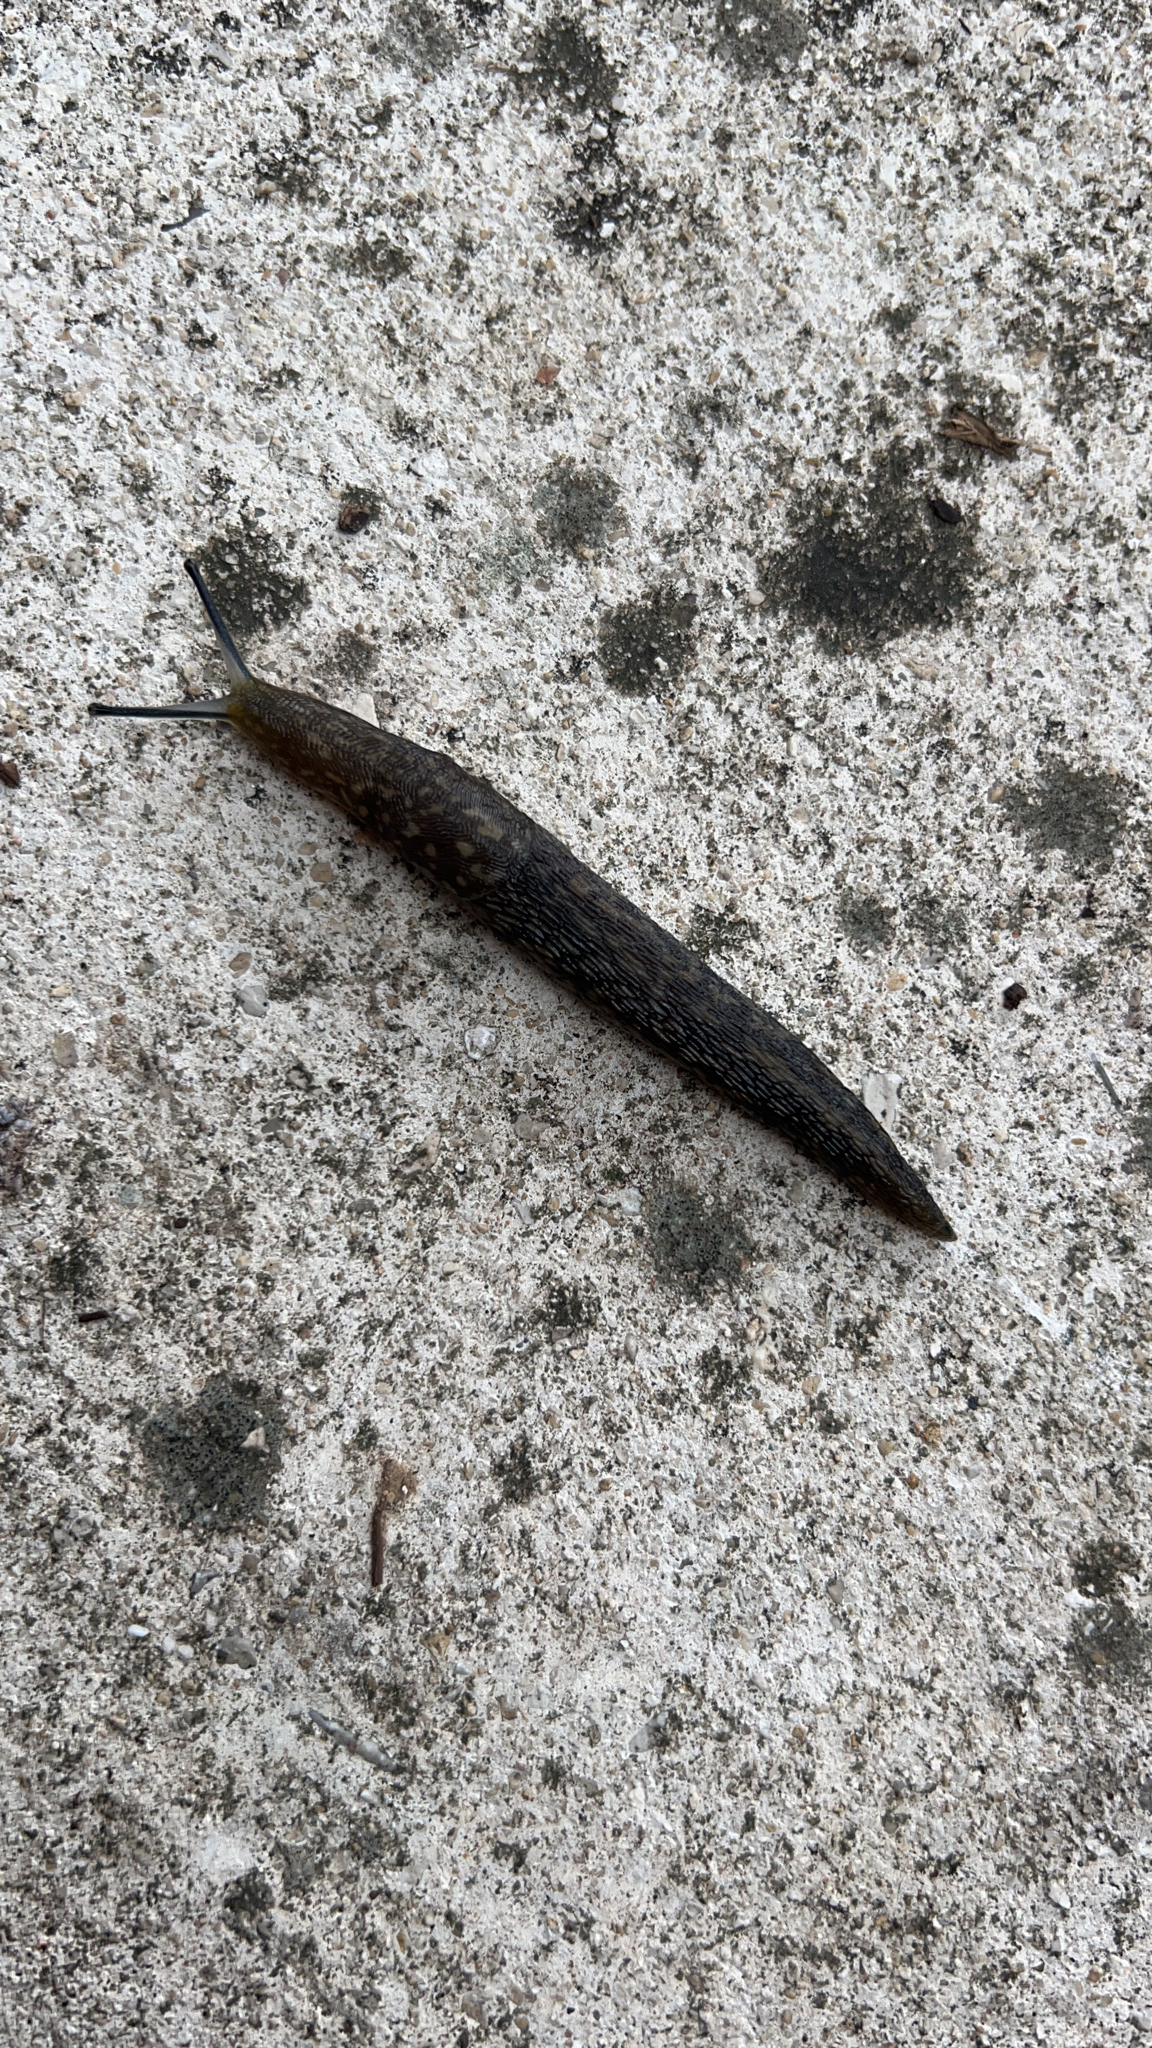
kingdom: Animalia
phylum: Mollusca
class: Gastropoda
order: Stylommatophora
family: Limacidae
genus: Limacus
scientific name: Limacus flavus
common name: Yellow gardenslug
